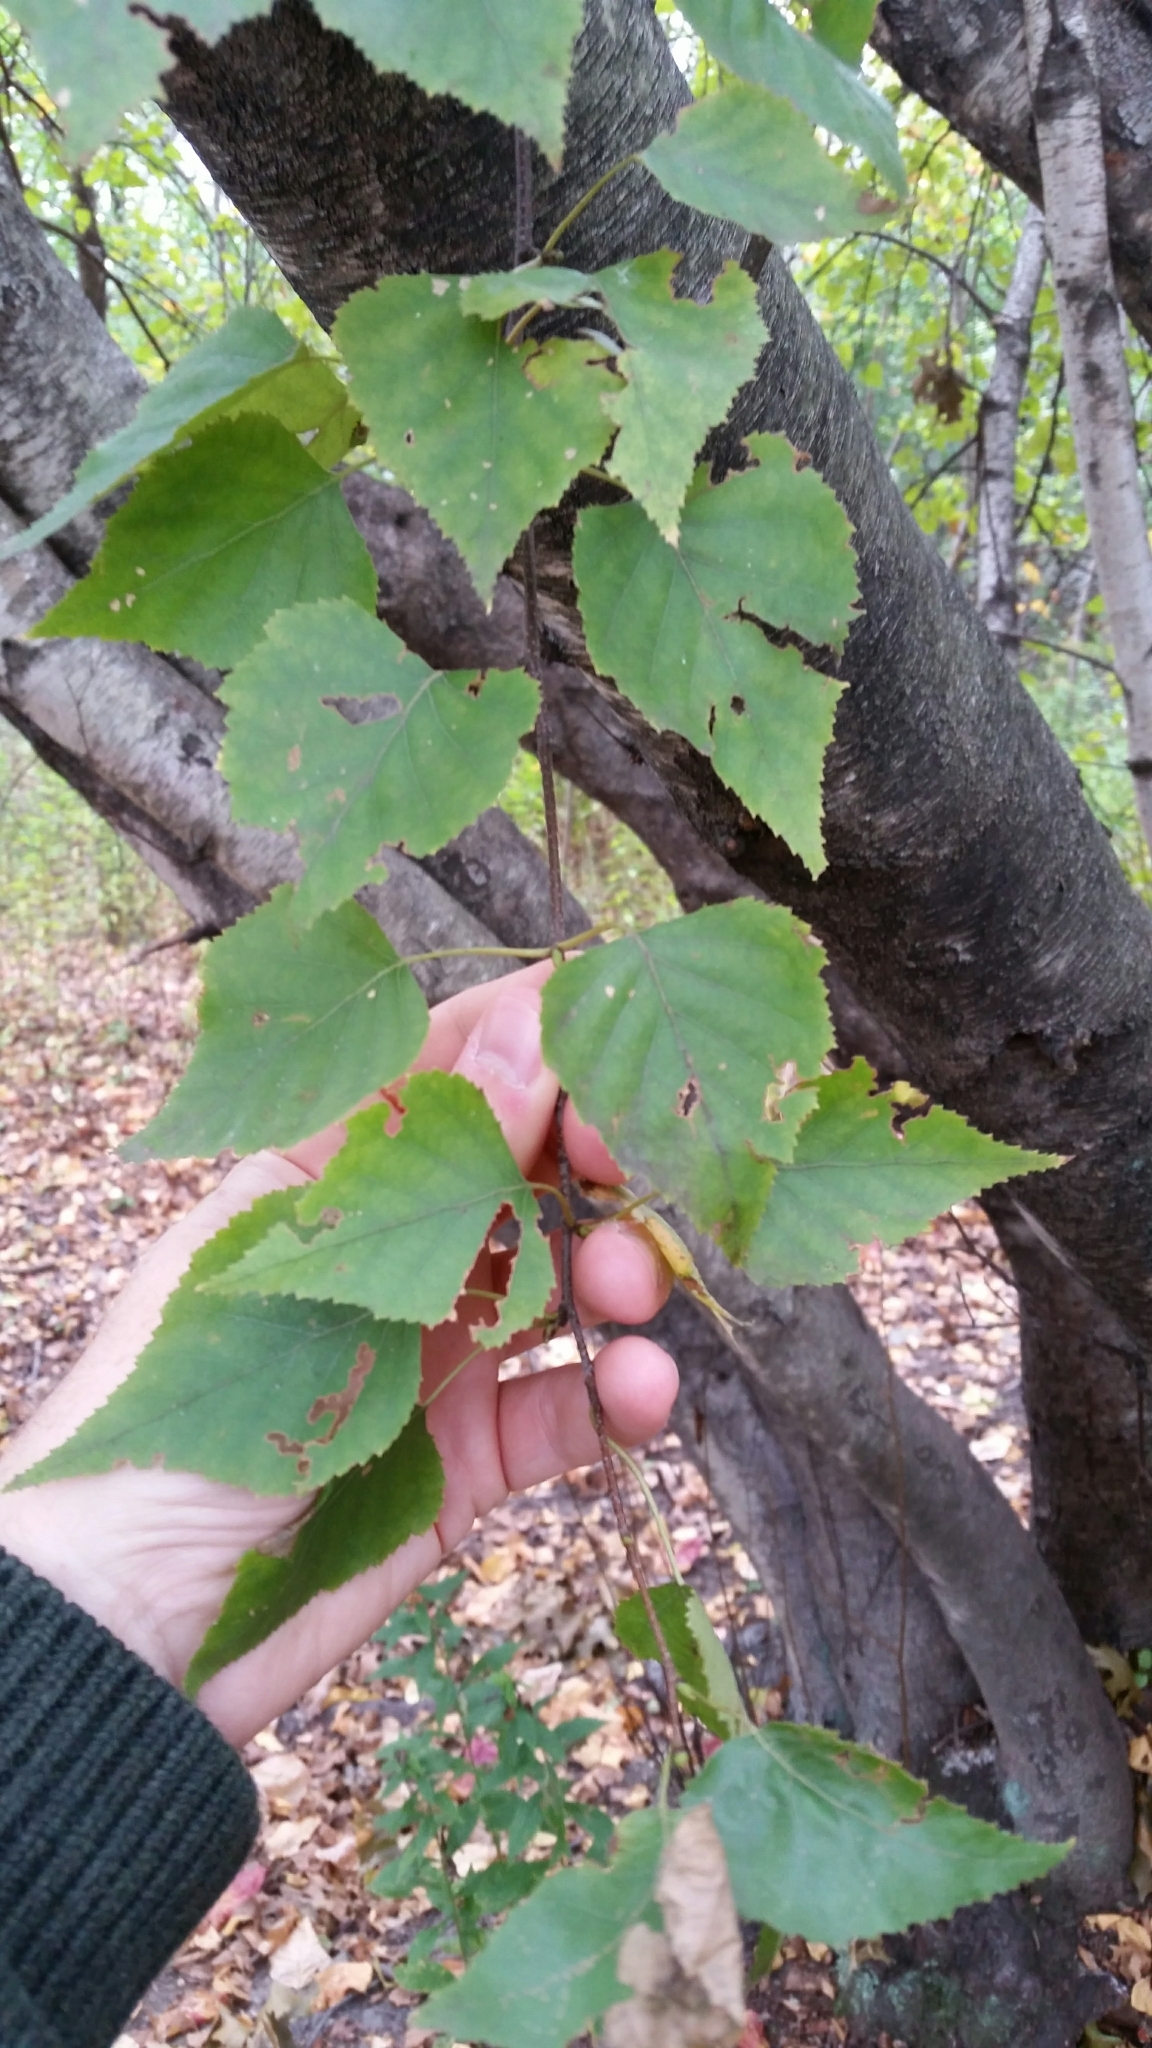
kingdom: Plantae
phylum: Tracheophyta
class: Magnoliopsida
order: Fagales
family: Betulaceae
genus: Betula
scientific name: Betula populifolia
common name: Fire birch
